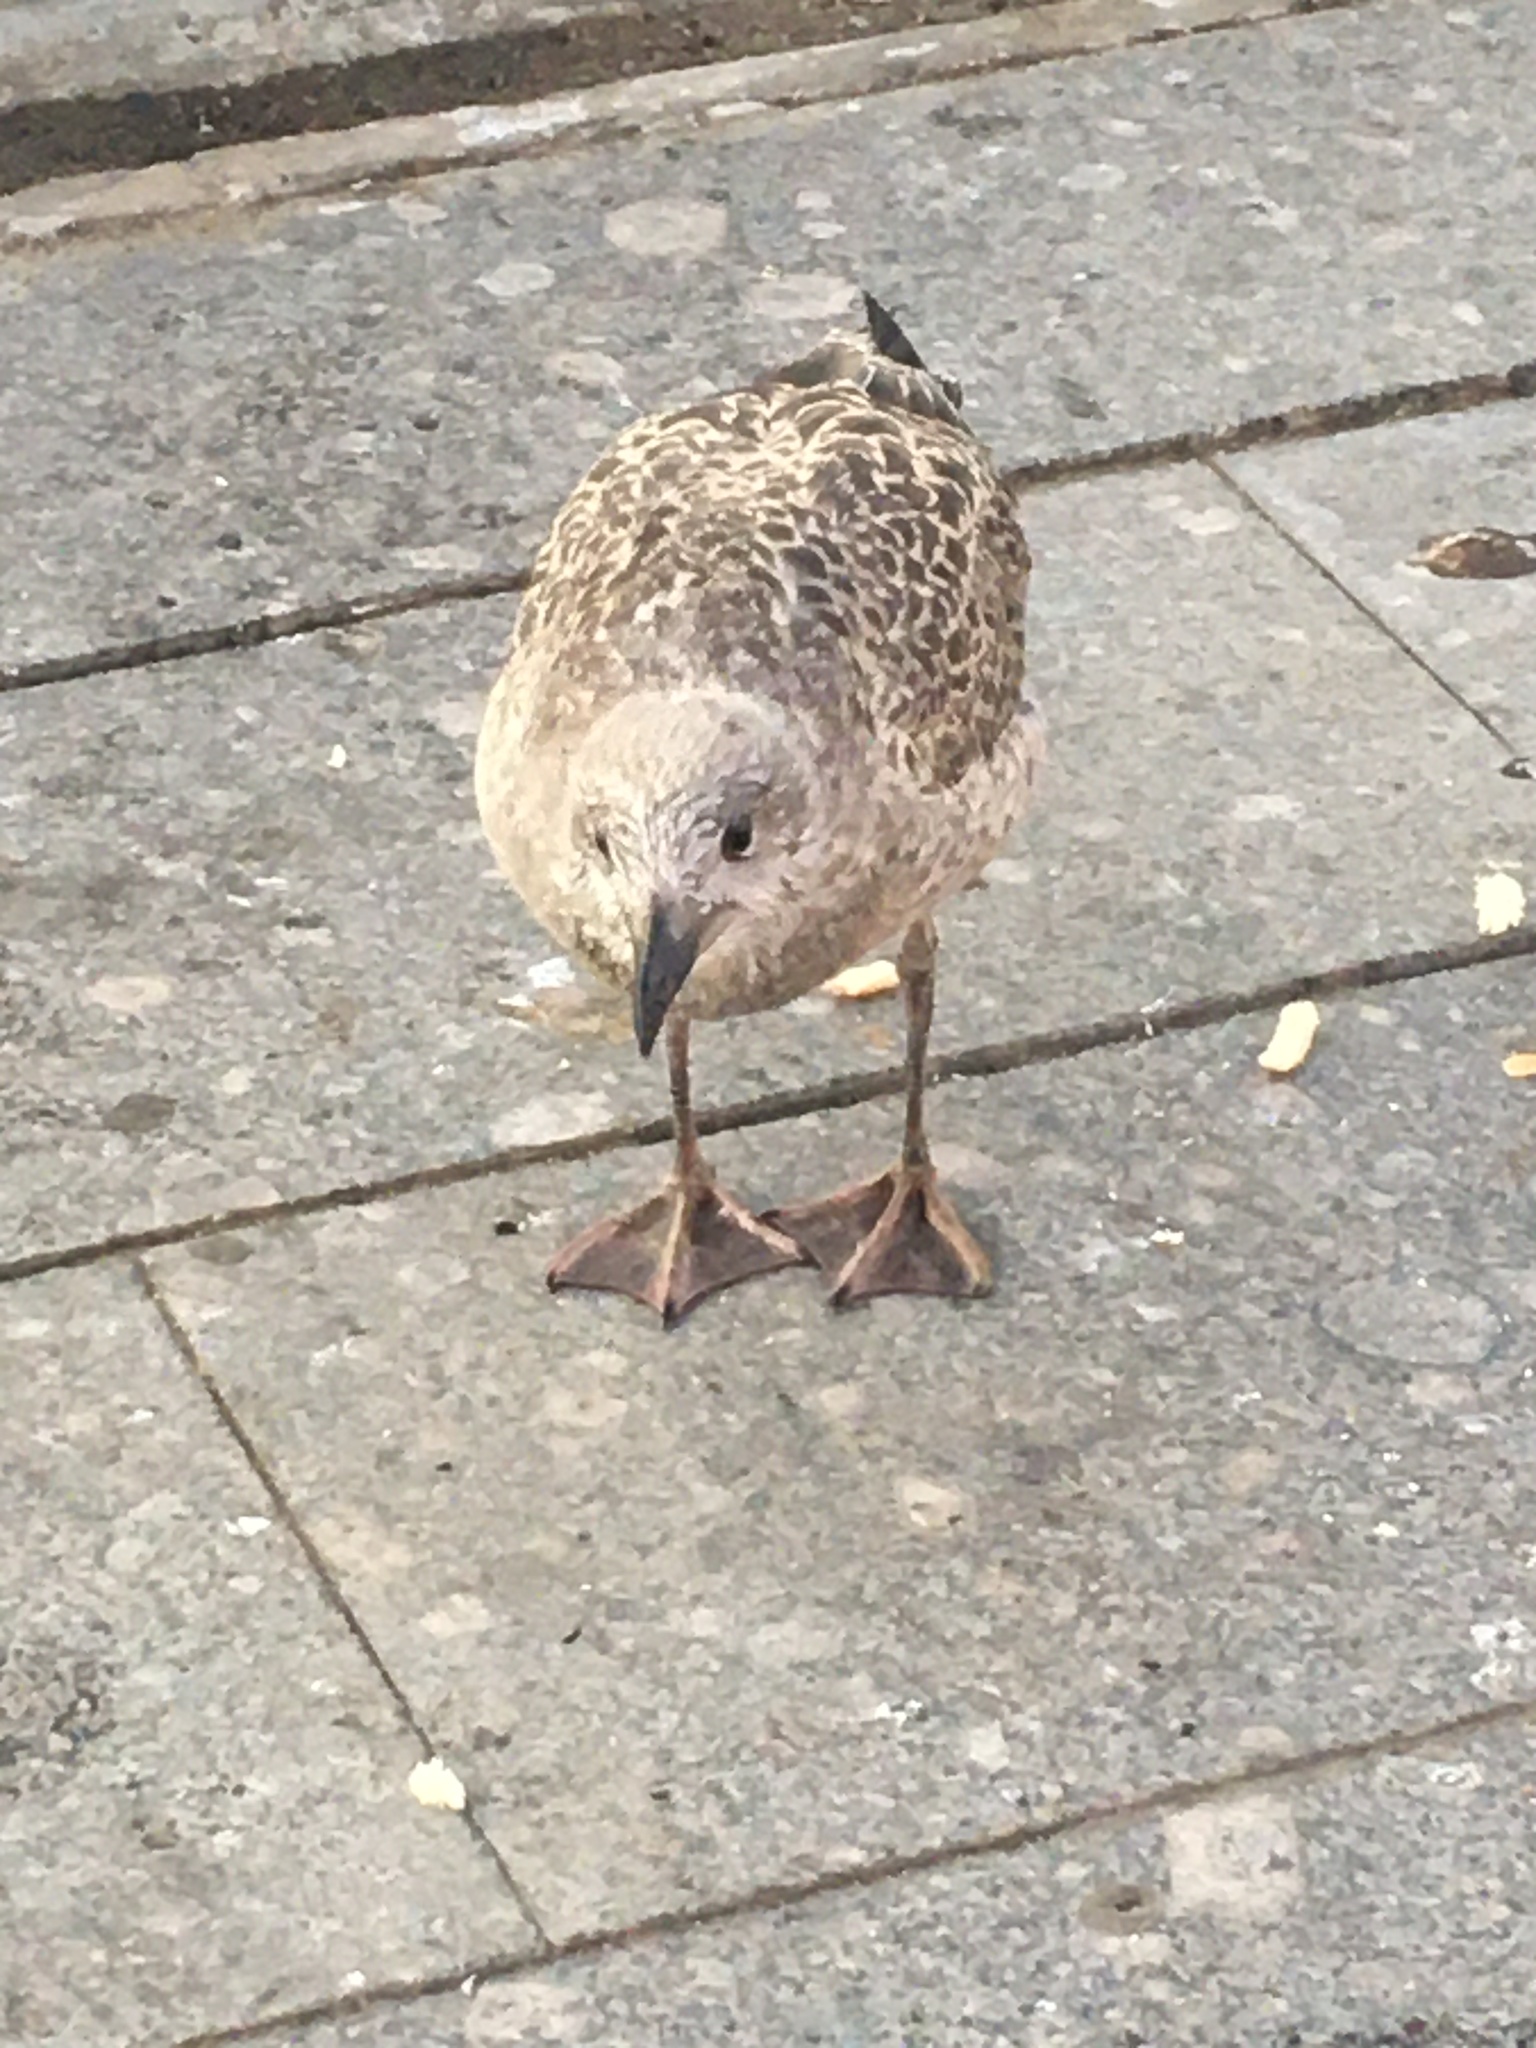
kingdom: Animalia
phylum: Chordata
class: Aves
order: Charadriiformes
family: Laridae
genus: Larus
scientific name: Larus argentatus
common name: Herring gull
